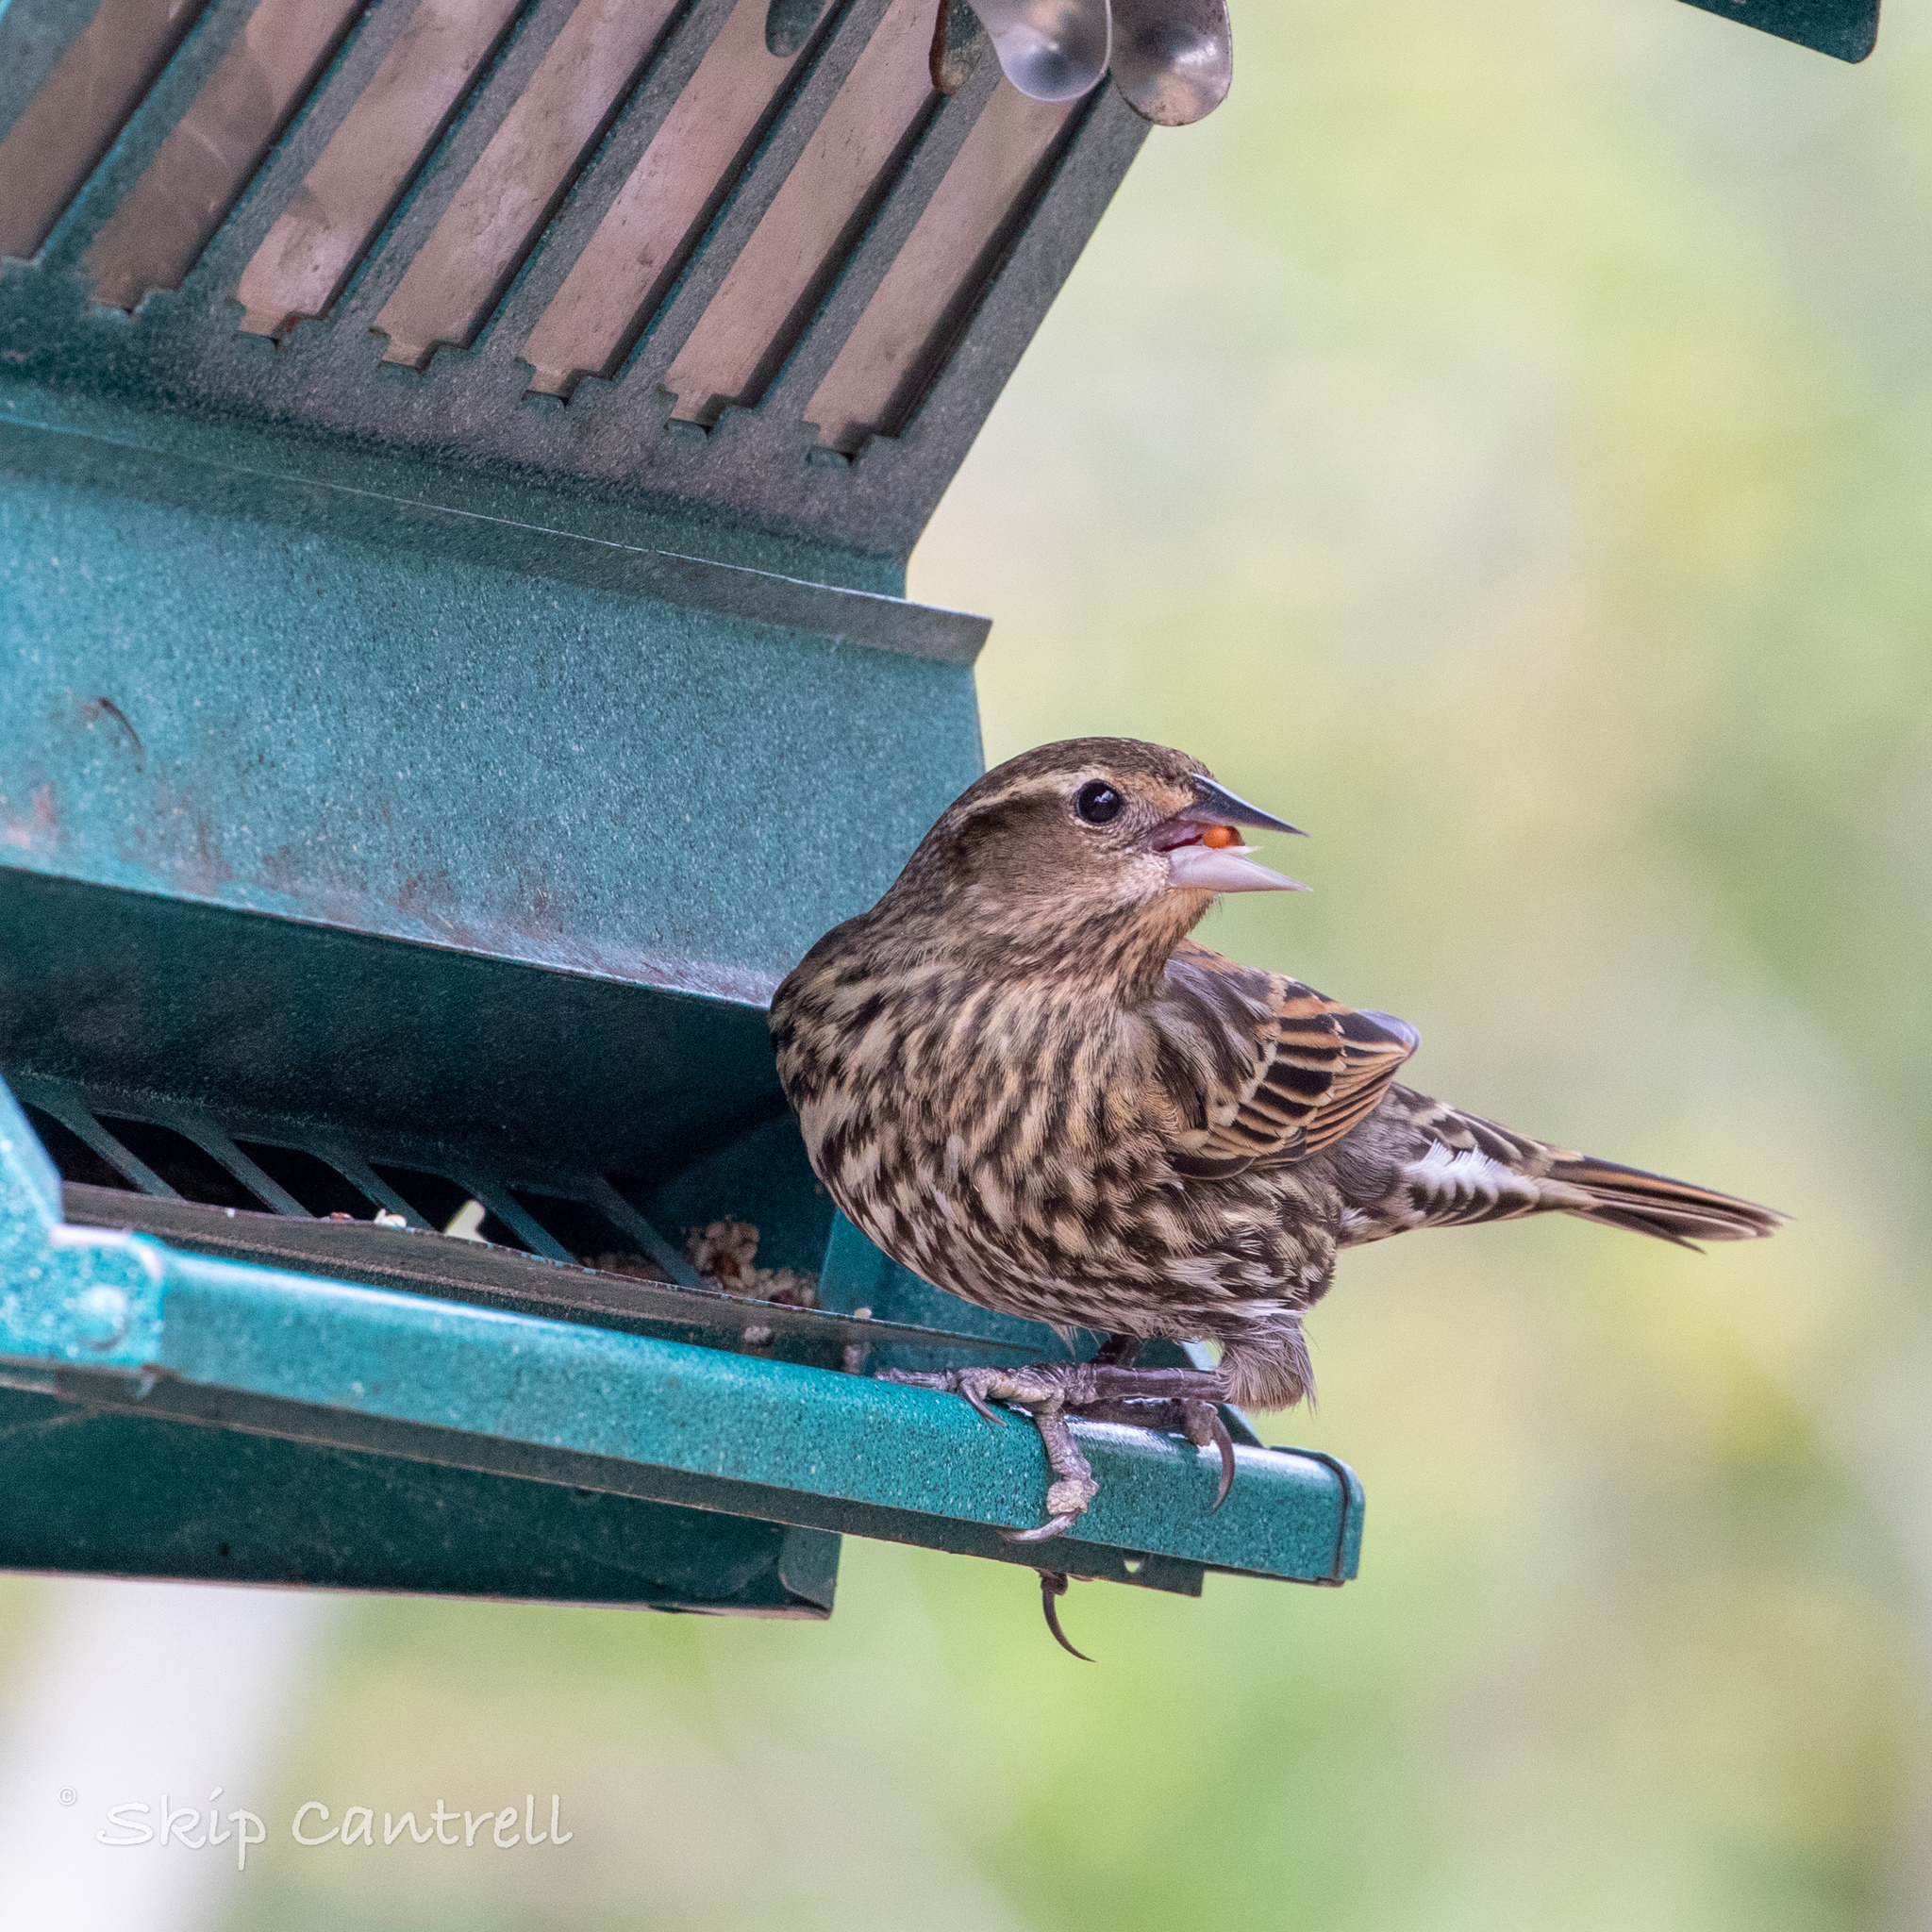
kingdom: Animalia
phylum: Chordata
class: Aves
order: Passeriformes
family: Icteridae
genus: Agelaius
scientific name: Agelaius phoeniceus
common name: Red-winged blackbird
